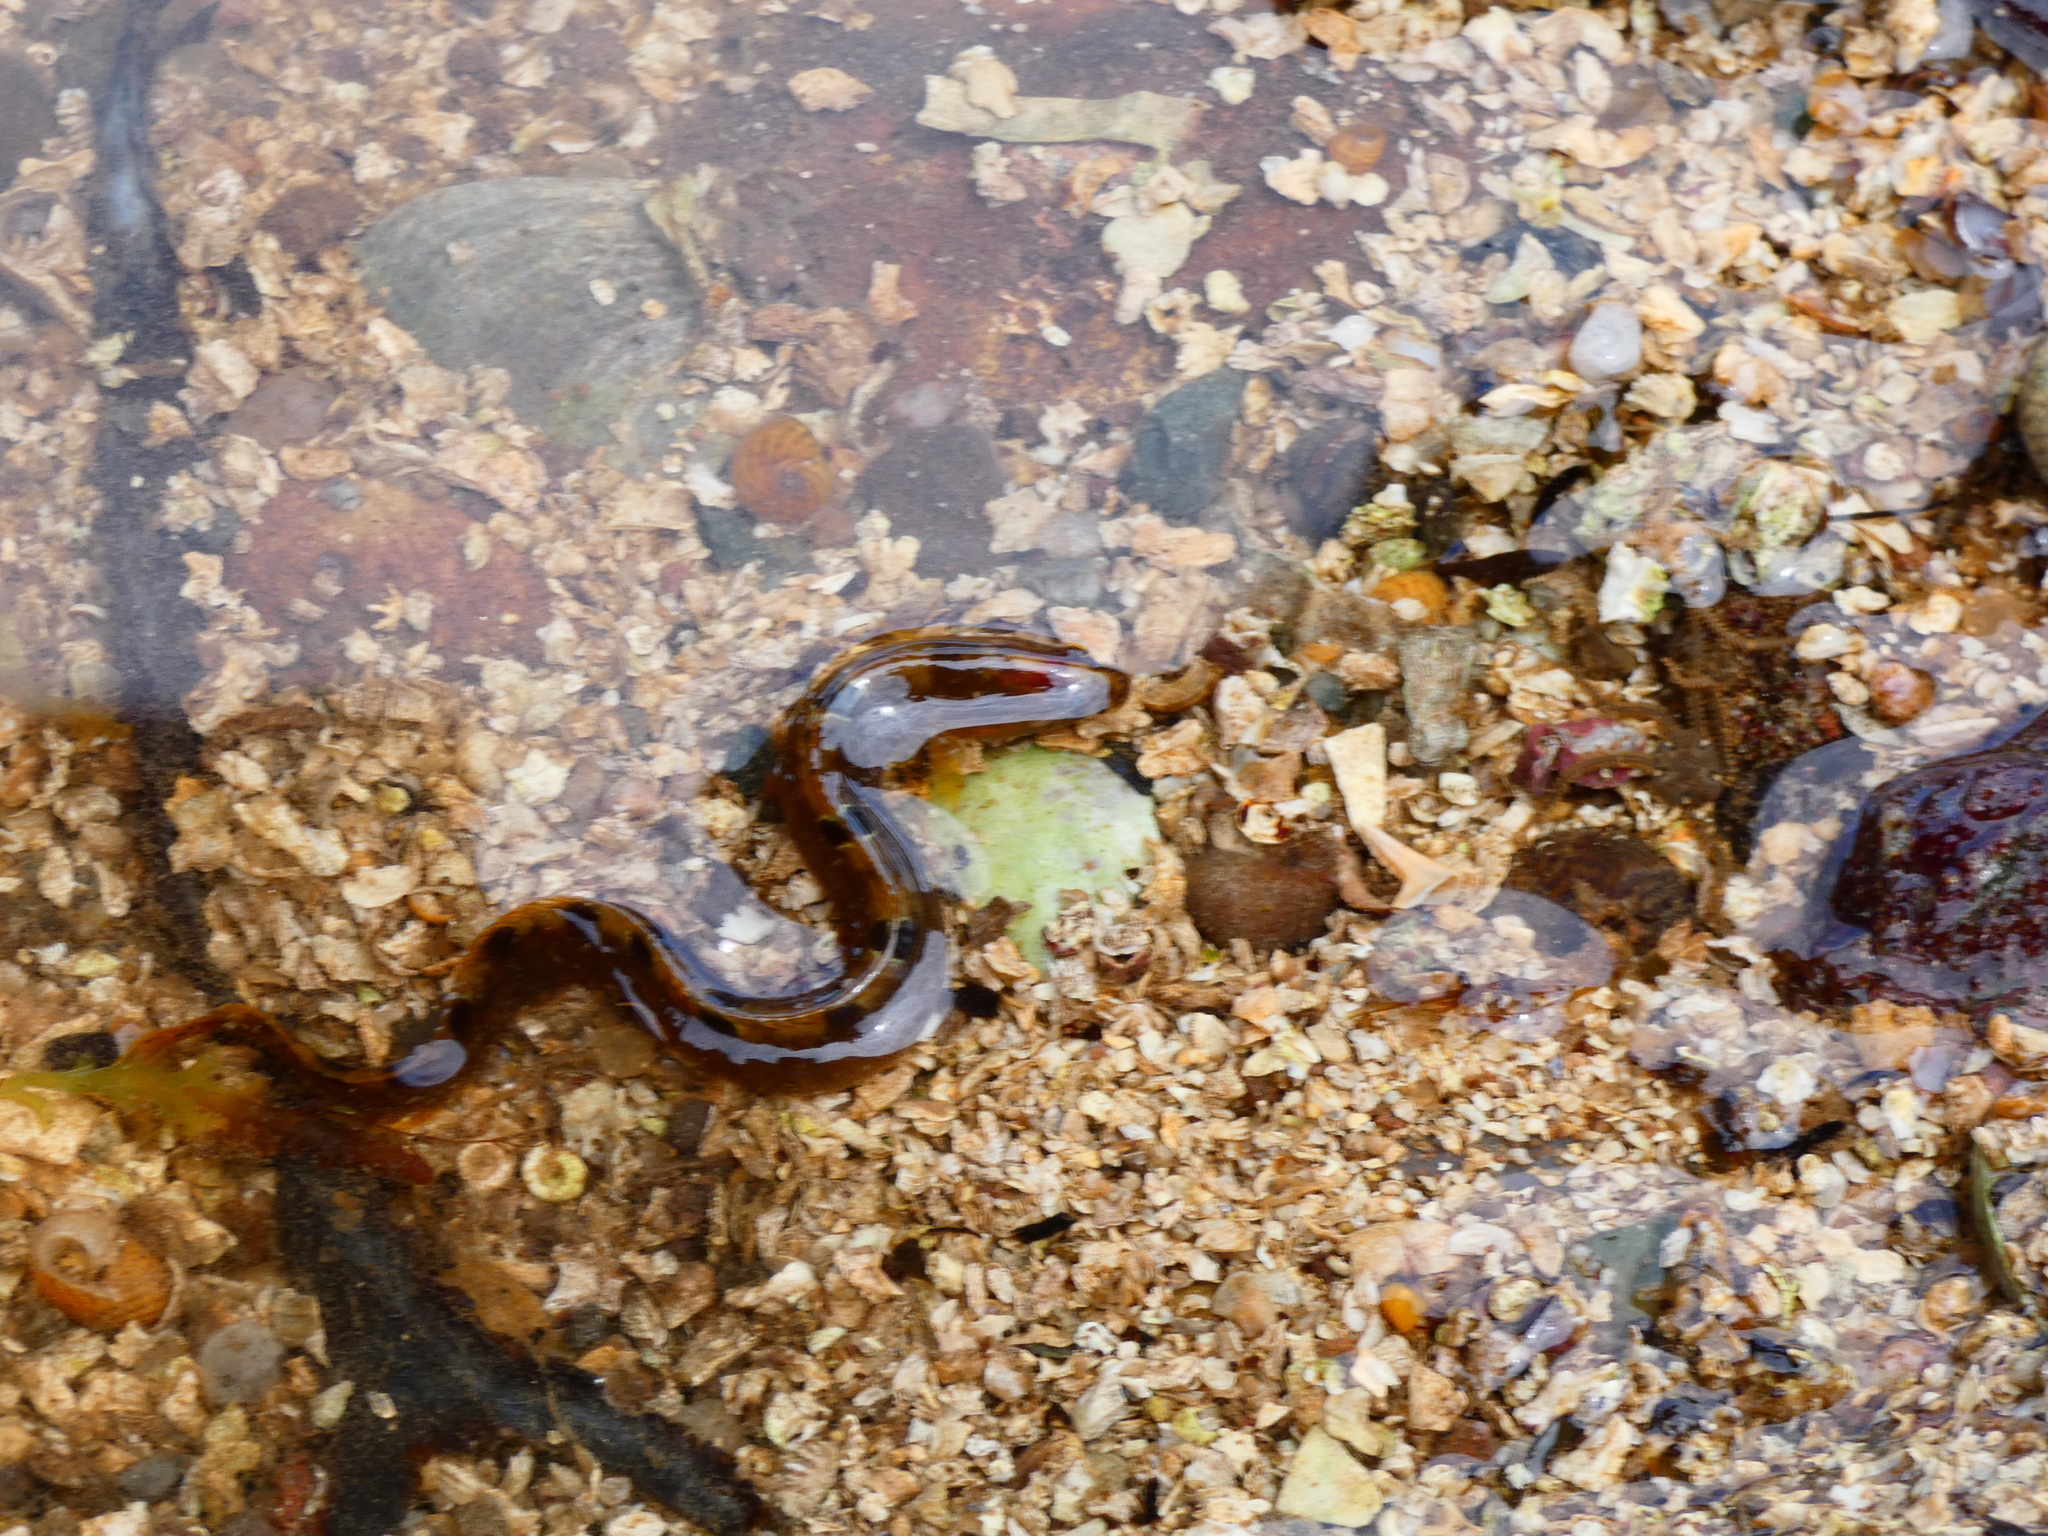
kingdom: Animalia
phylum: Chordata
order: Perciformes
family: Pholidae
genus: Pholis
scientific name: Pholis gunnellus
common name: Butterfish
